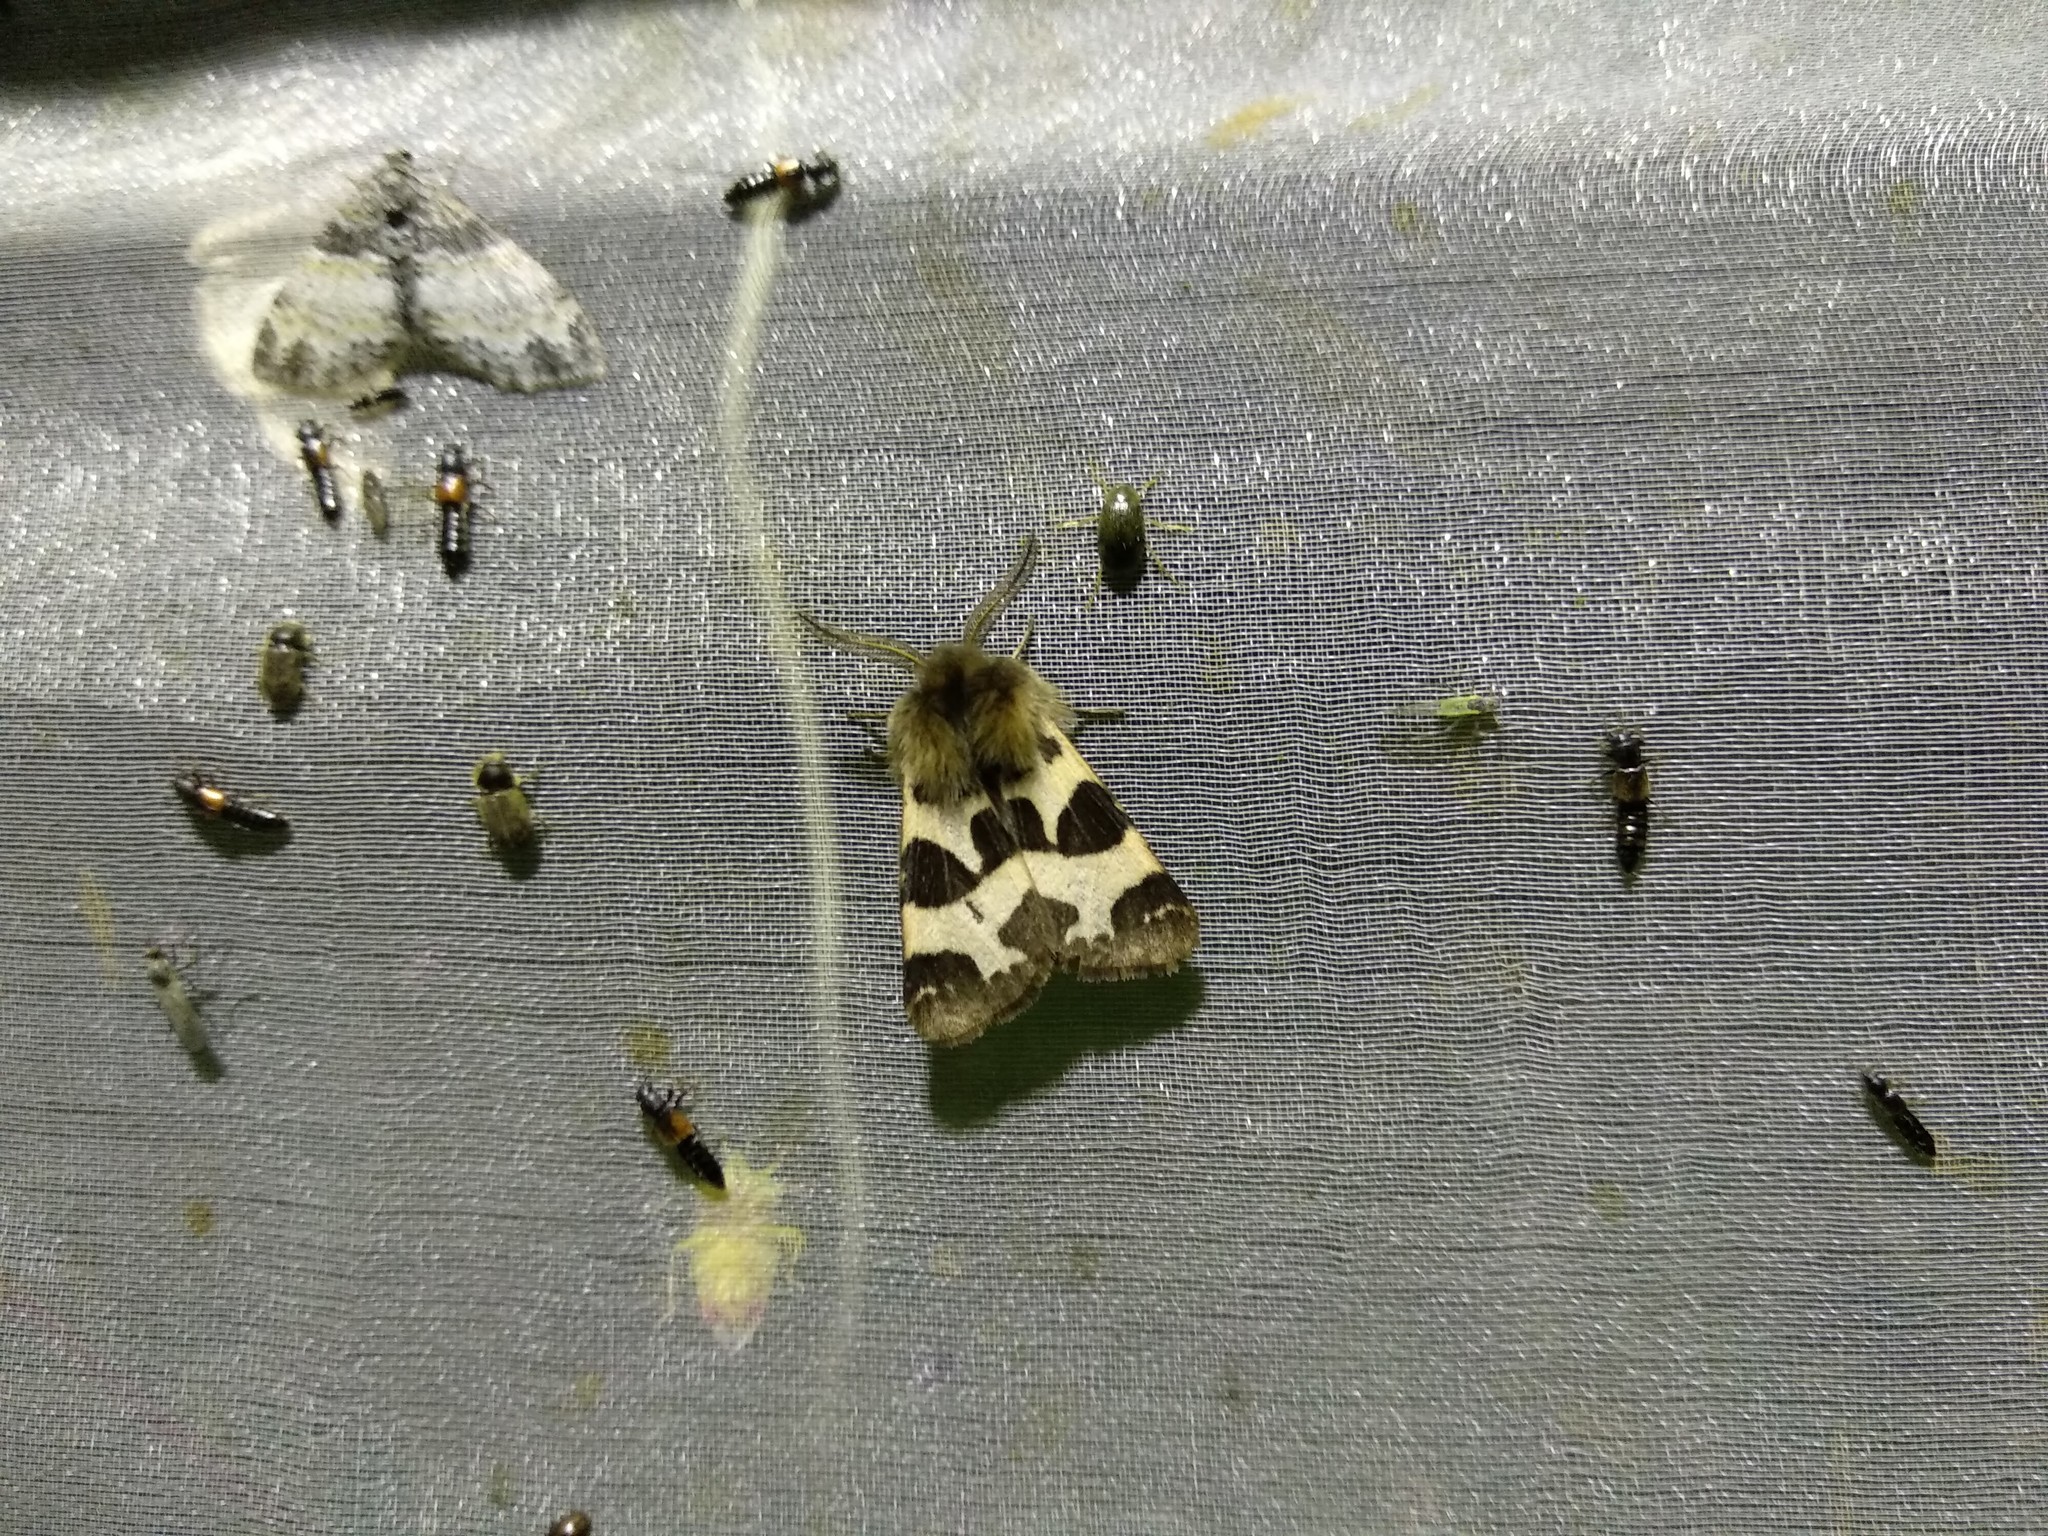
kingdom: Animalia
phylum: Arthropoda
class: Insecta
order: Lepidoptera
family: Erebidae
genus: Watsonarctia
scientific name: Watsonarctia deserta
